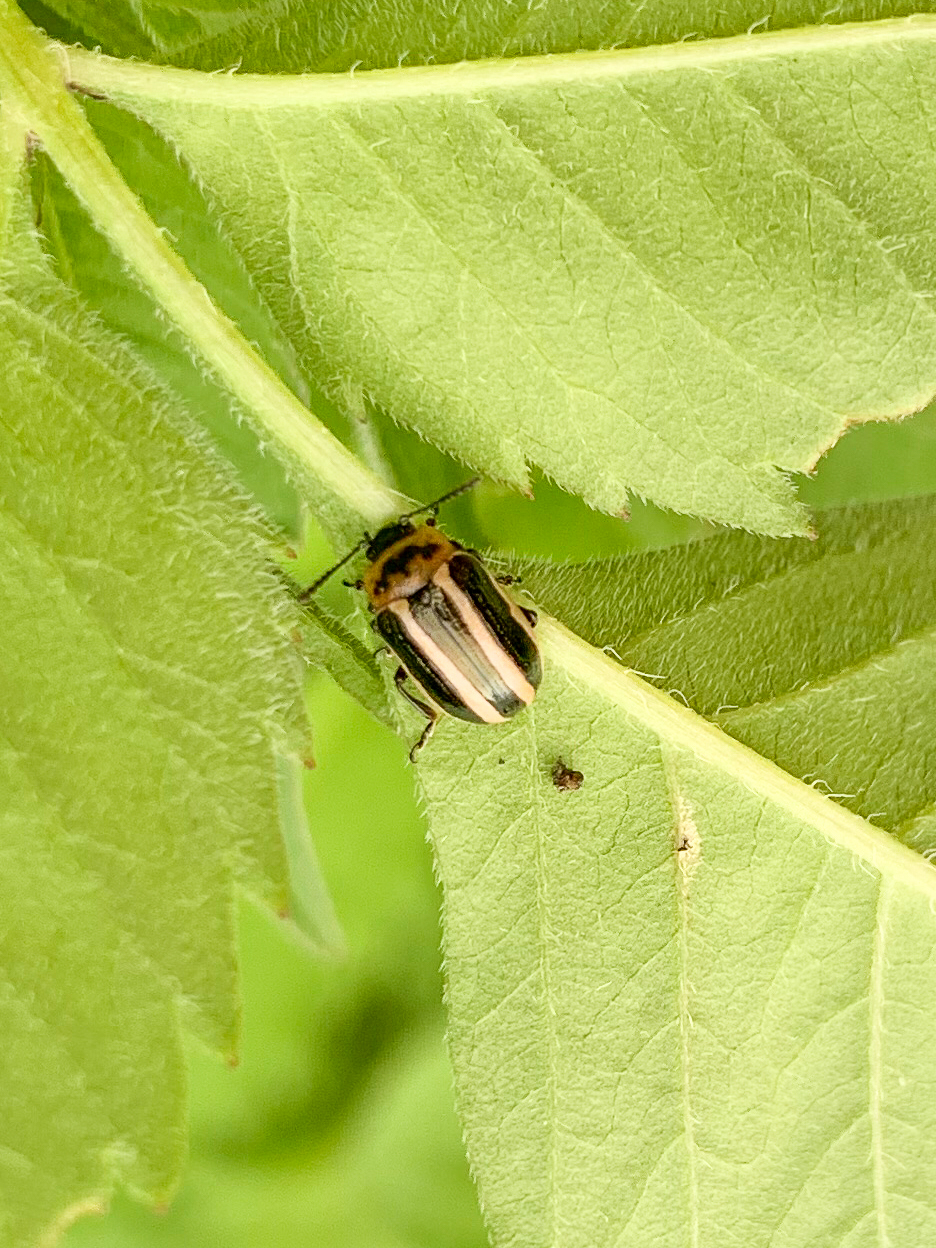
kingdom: Animalia
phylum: Arthropoda
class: Insecta
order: Coleoptera
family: Chrysomelidae
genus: Calligrapha
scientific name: Calligrapha californica
